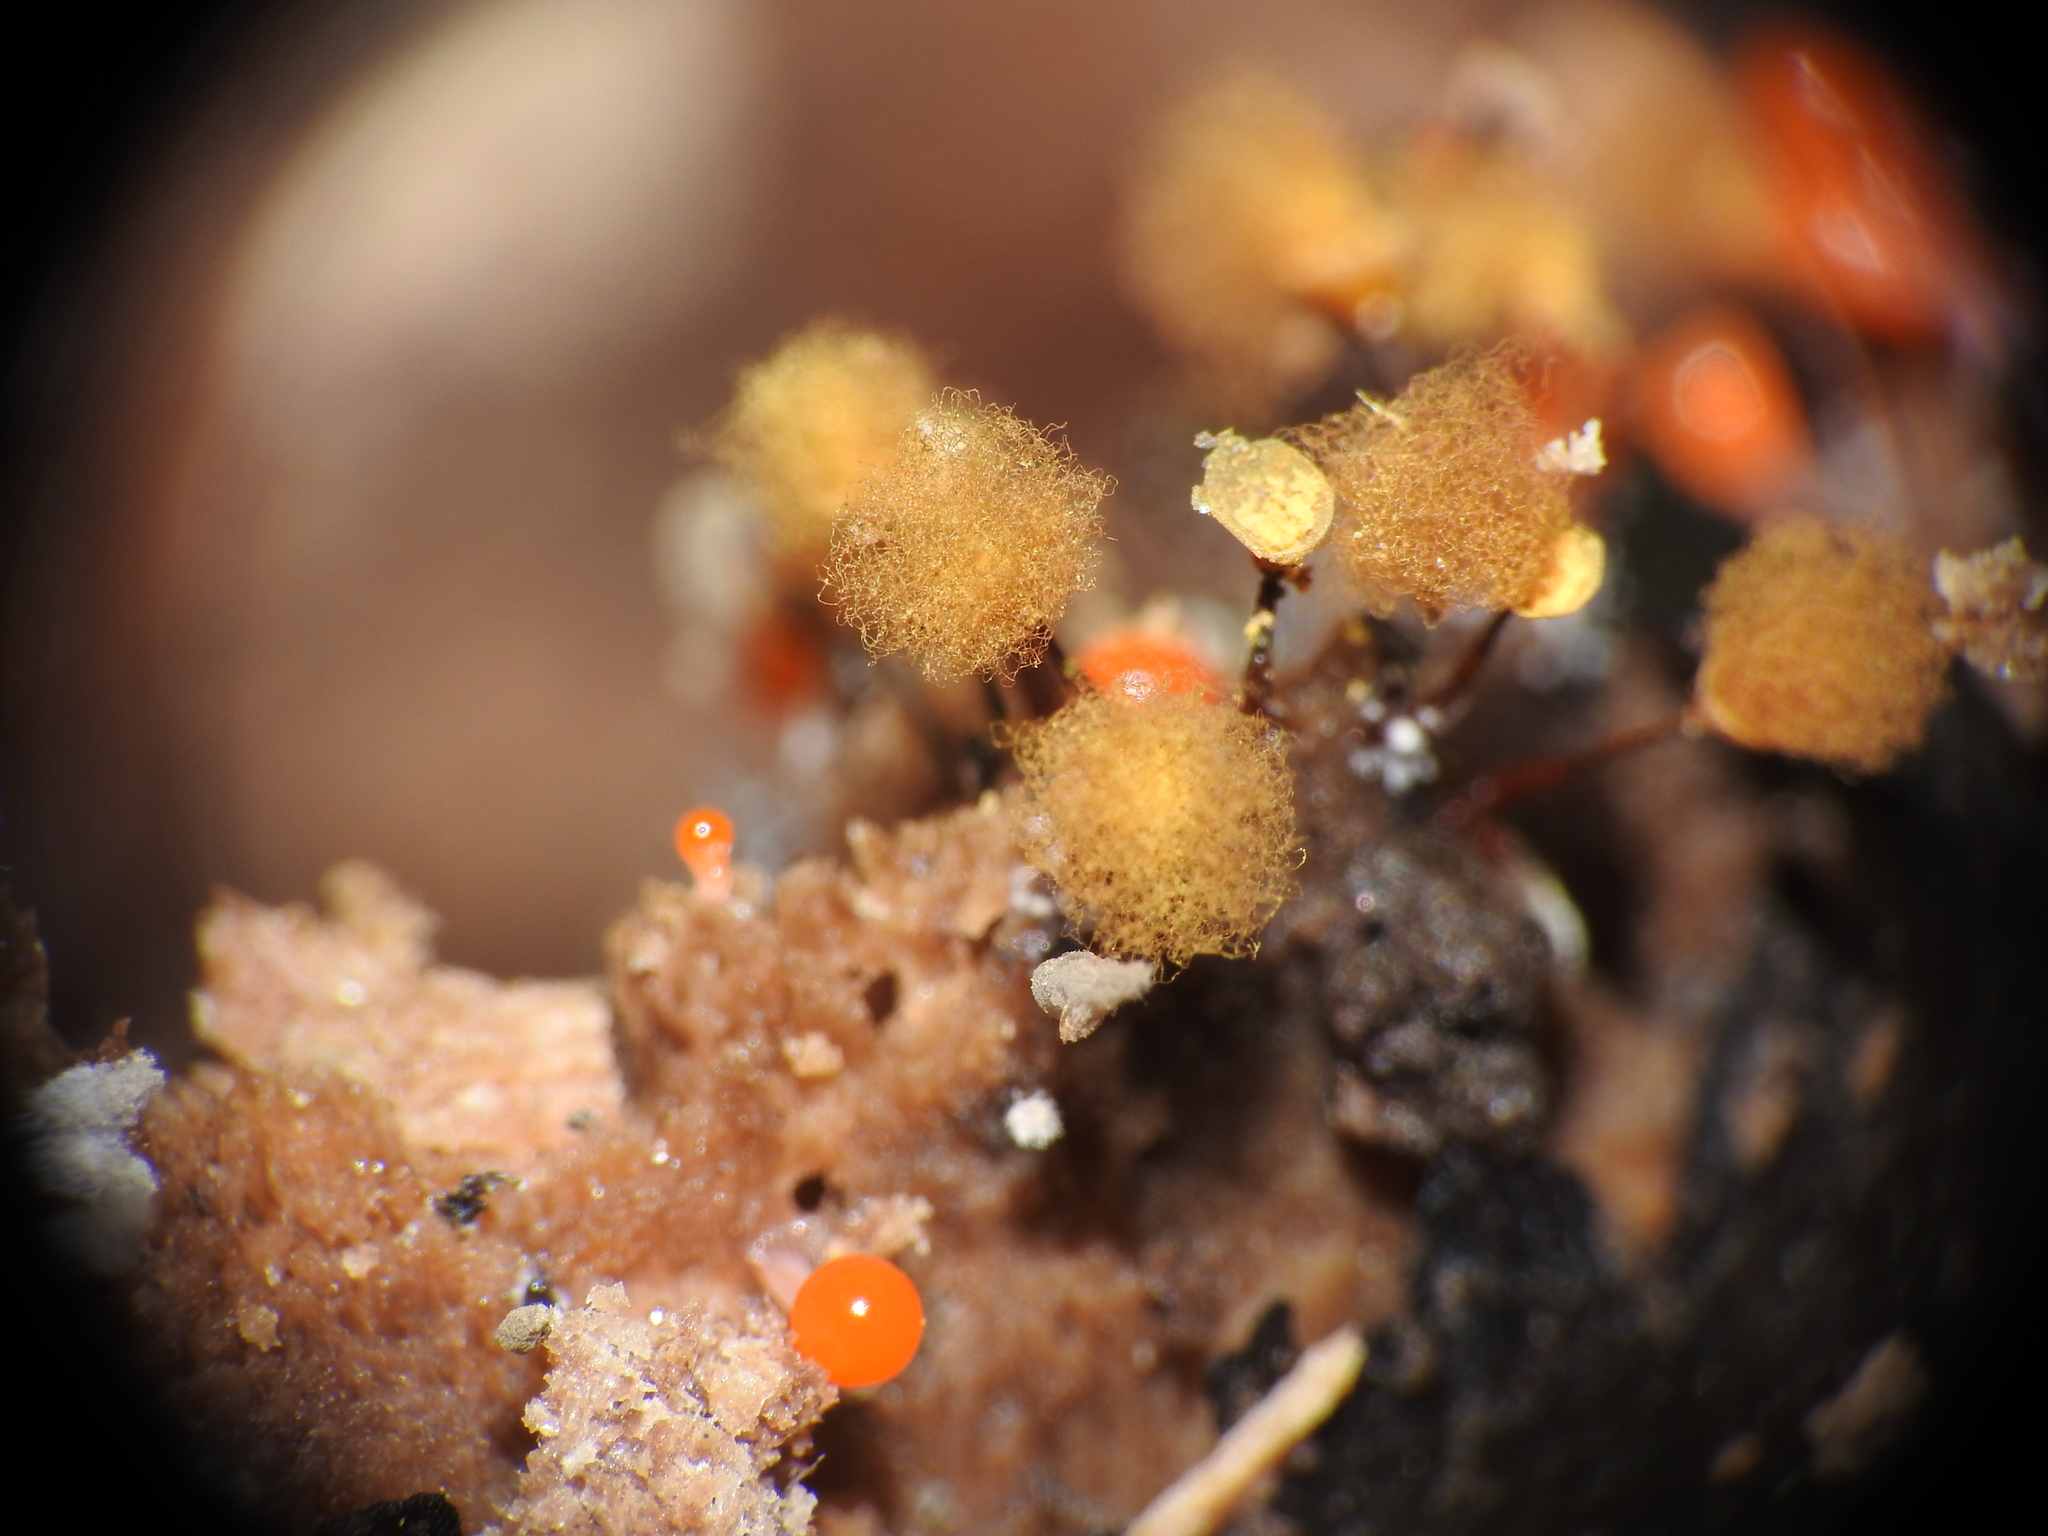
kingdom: Protozoa
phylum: Mycetozoa
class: Myxomycetes
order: Trichiales
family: Arcyriaceae
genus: Hemitrichia
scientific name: Hemitrichia calyculata
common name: Push pin slime mold
